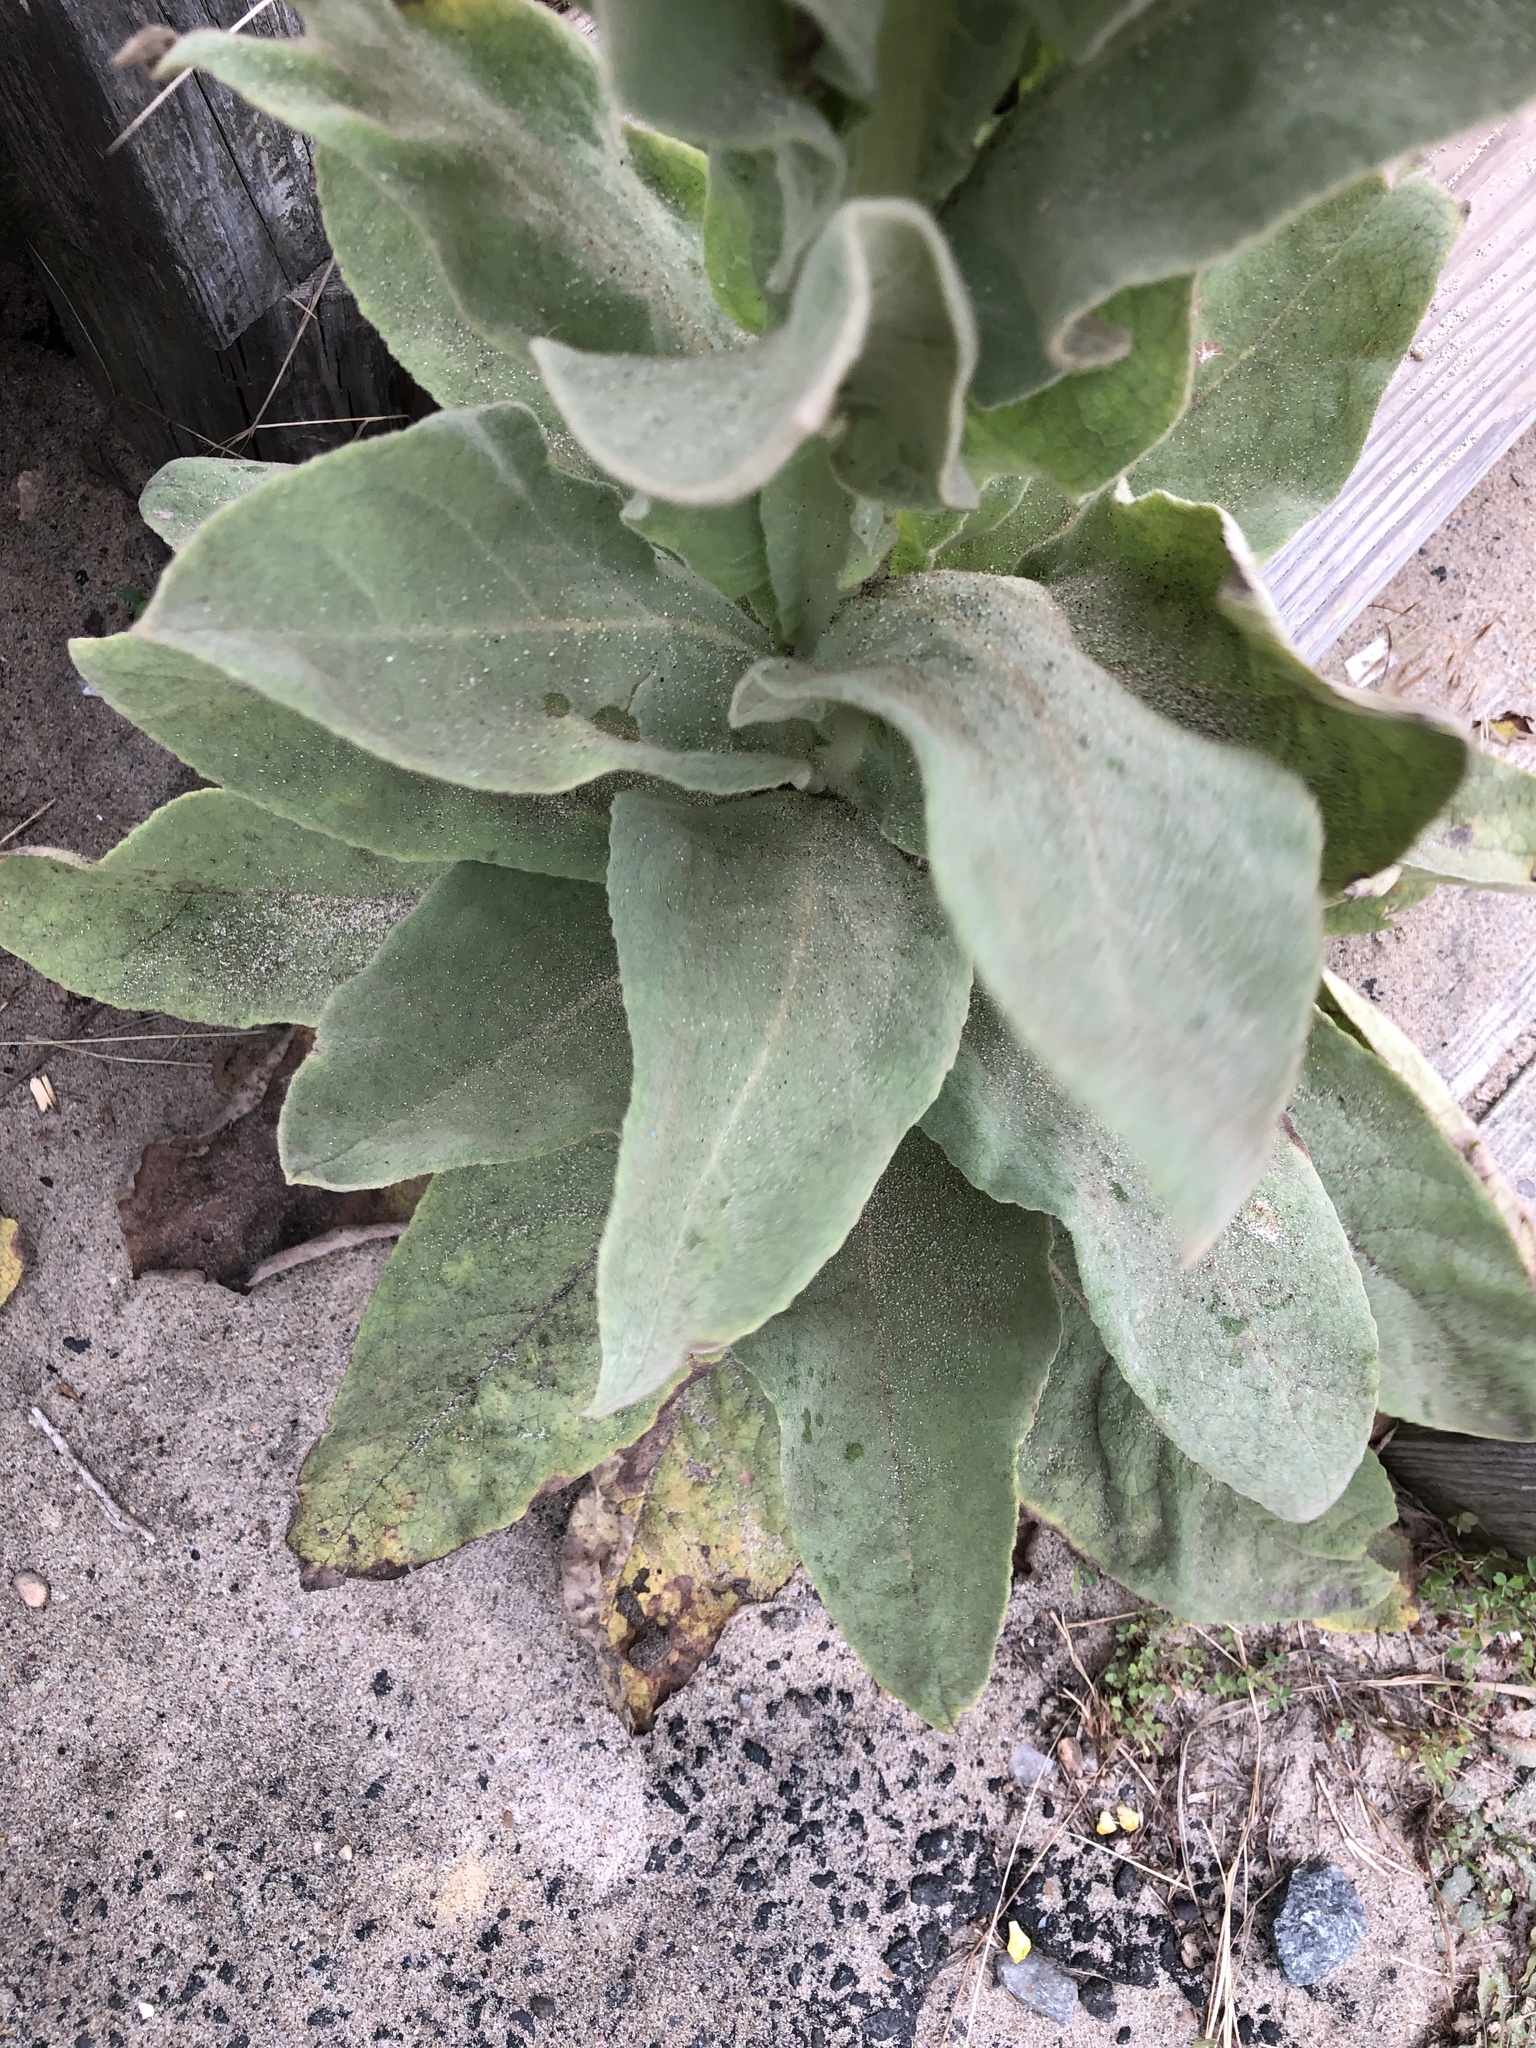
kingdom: Plantae
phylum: Tracheophyta
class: Magnoliopsida
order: Lamiales
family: Scrophulariaceae
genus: Verbascum
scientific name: Verbascum thapsus
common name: Common mullein
